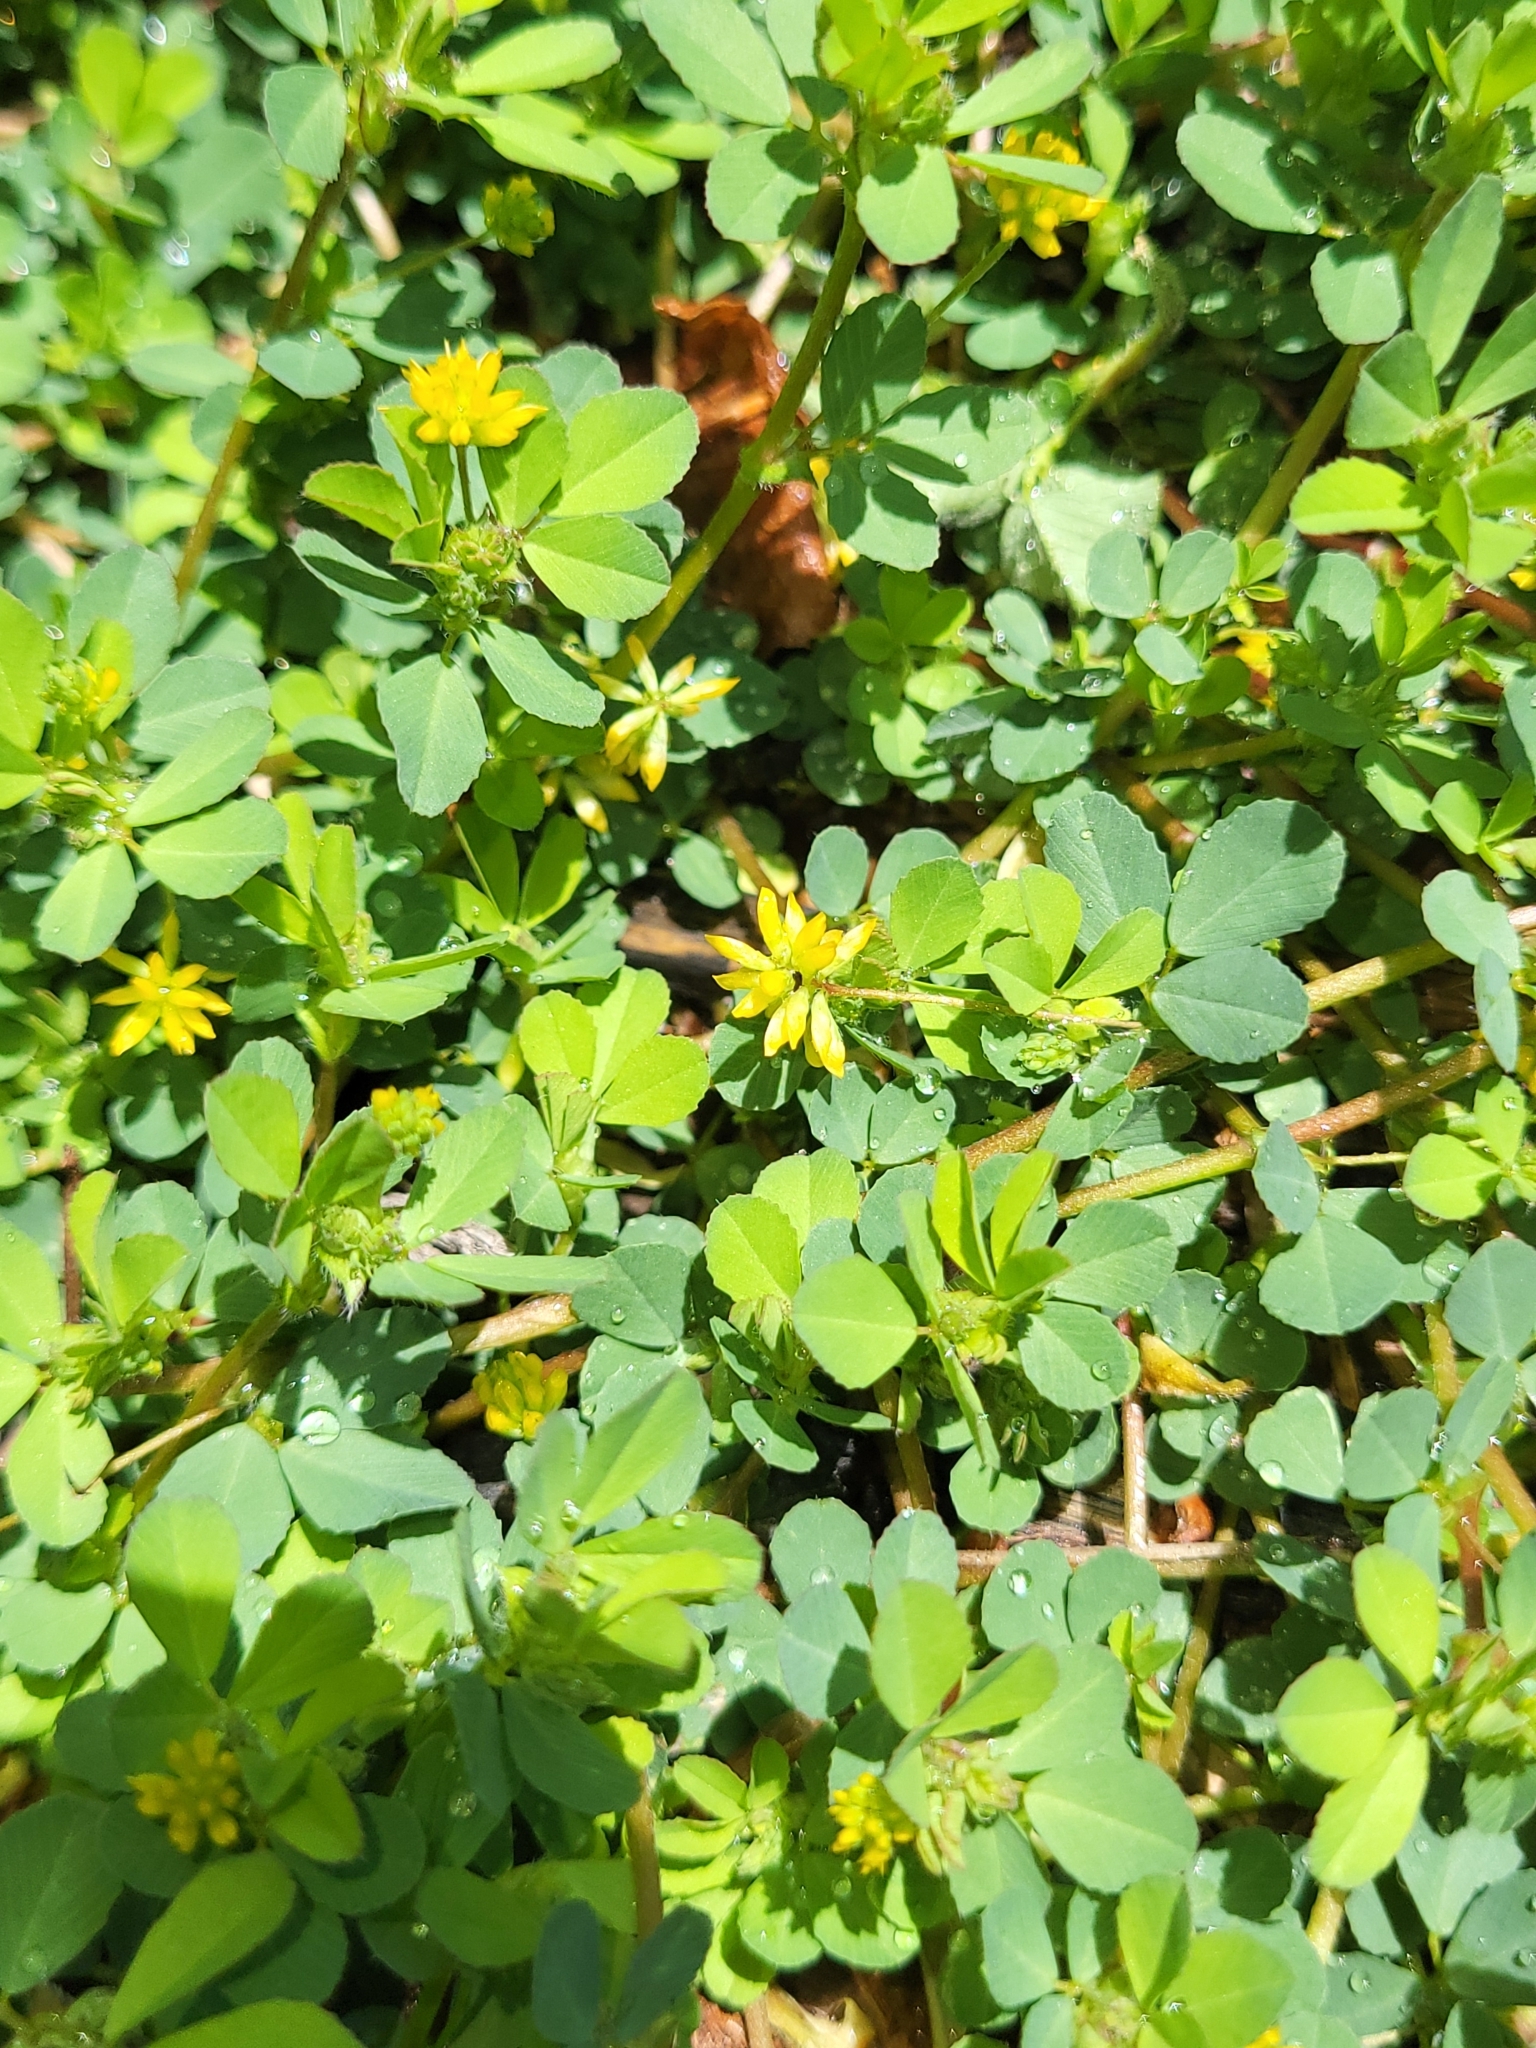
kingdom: Plantae
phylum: Tracheophyta
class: Magnoliopsida
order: Fabales
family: Fabaceae
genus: Trifolium
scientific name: Trifolium dubium
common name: Suckling clover
